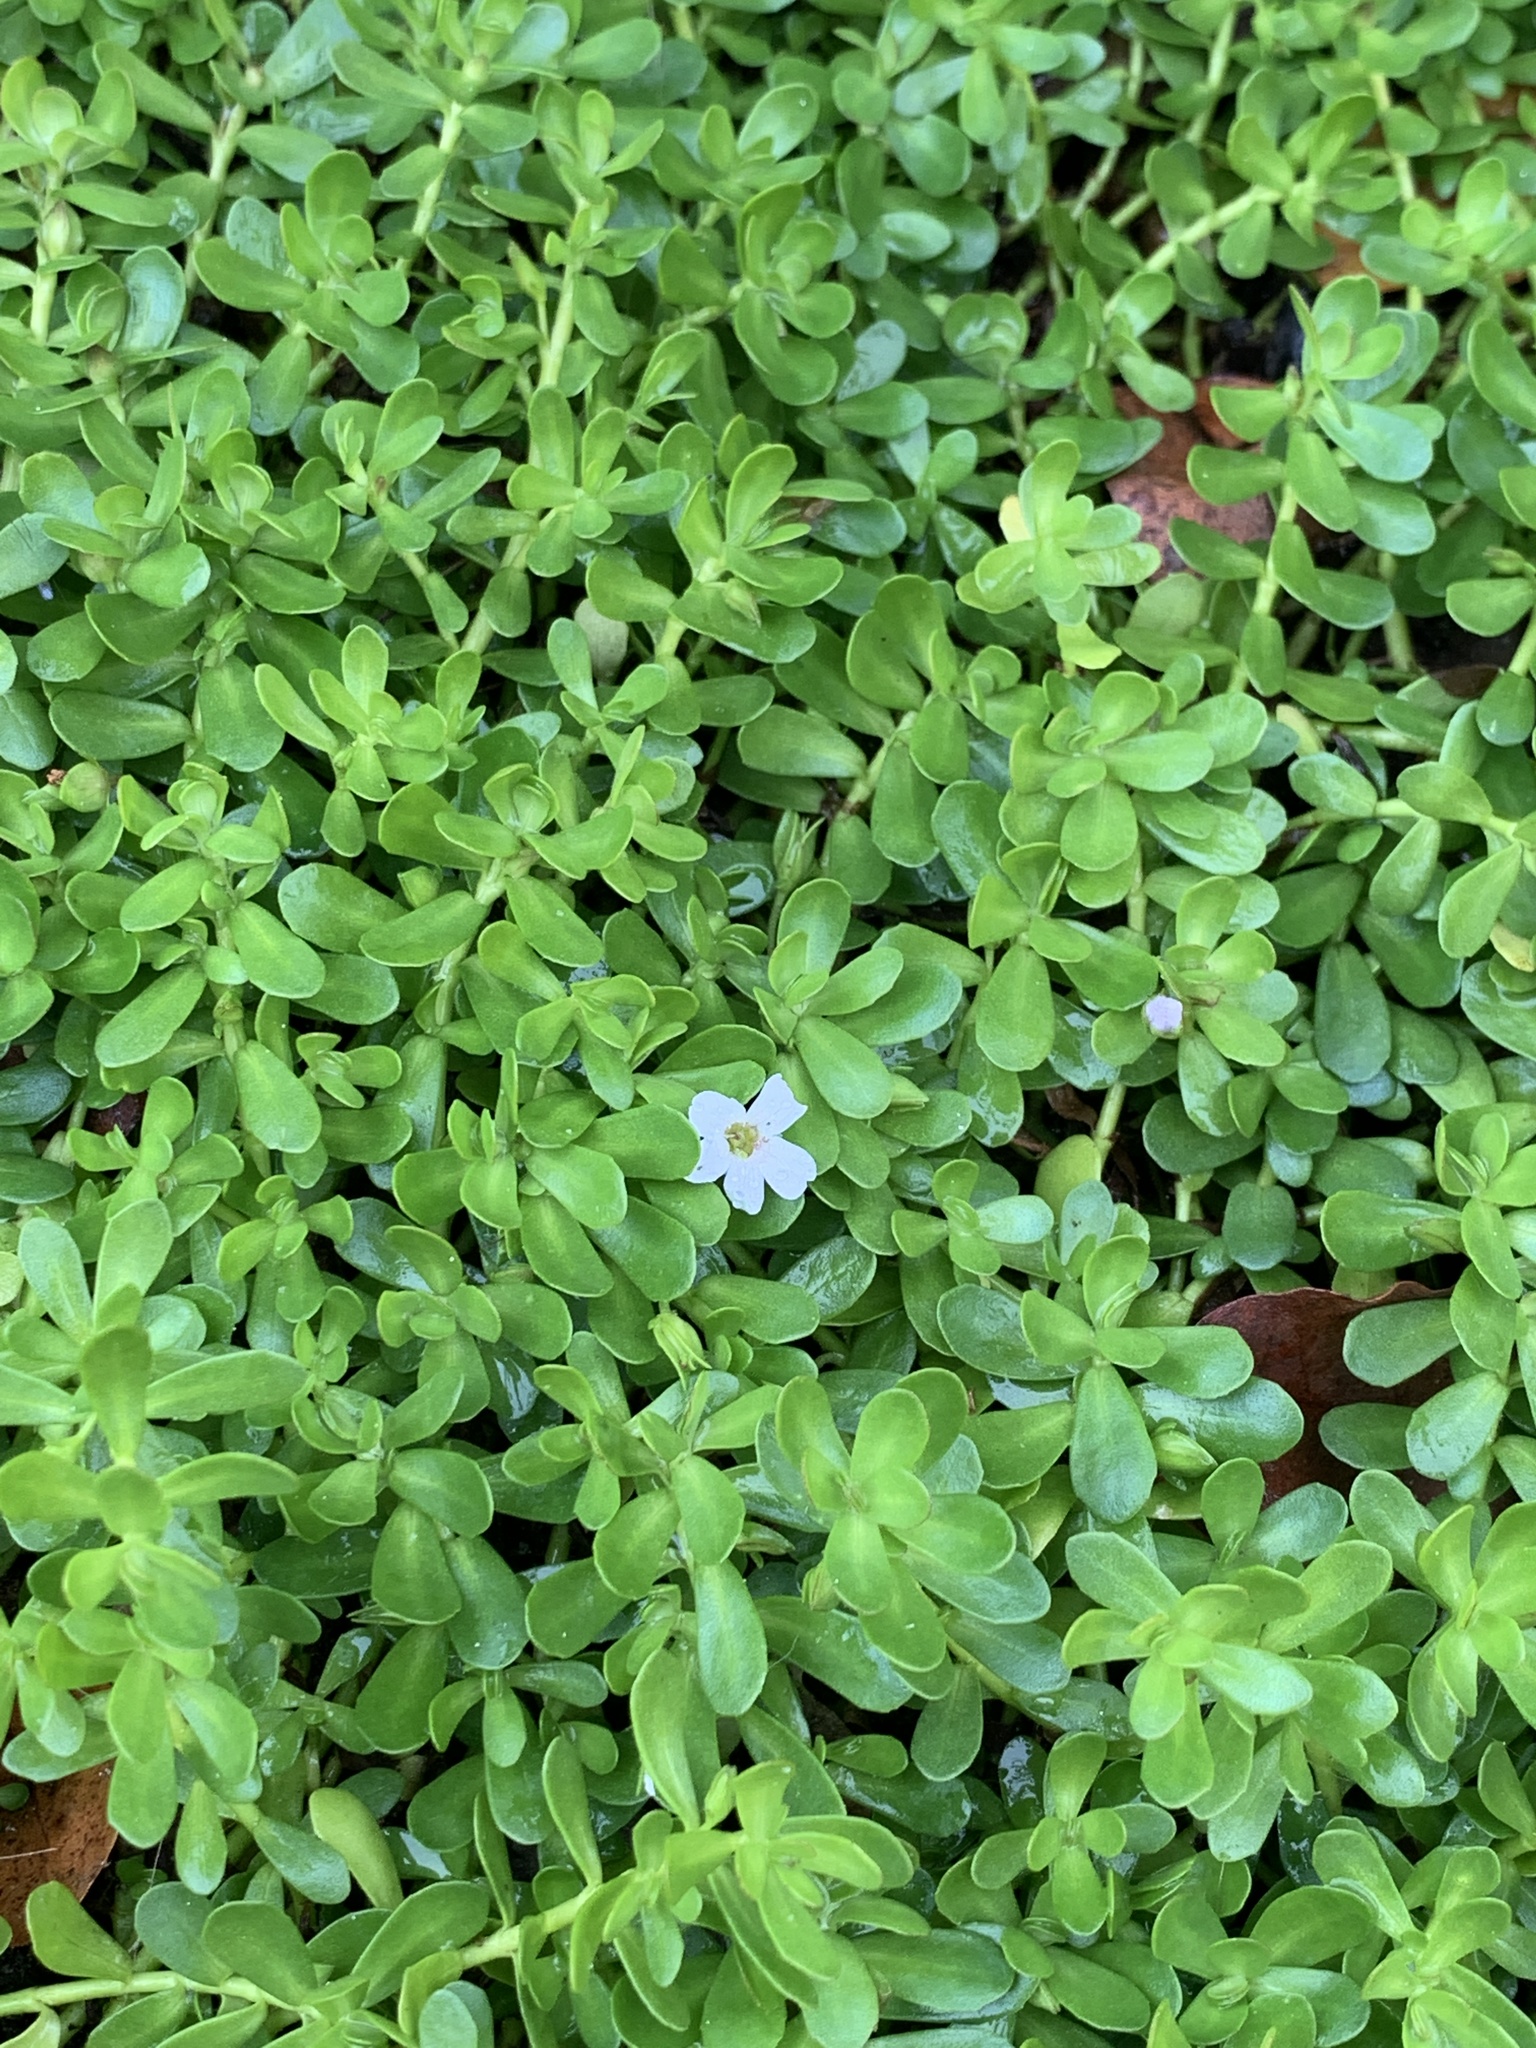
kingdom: Plantae
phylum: Tracheophyta
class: Magnoliopsida
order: Lamiales
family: Plantaginaceae
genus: Bacopa
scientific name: Bacopa monnieri
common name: Indian-pennywort
